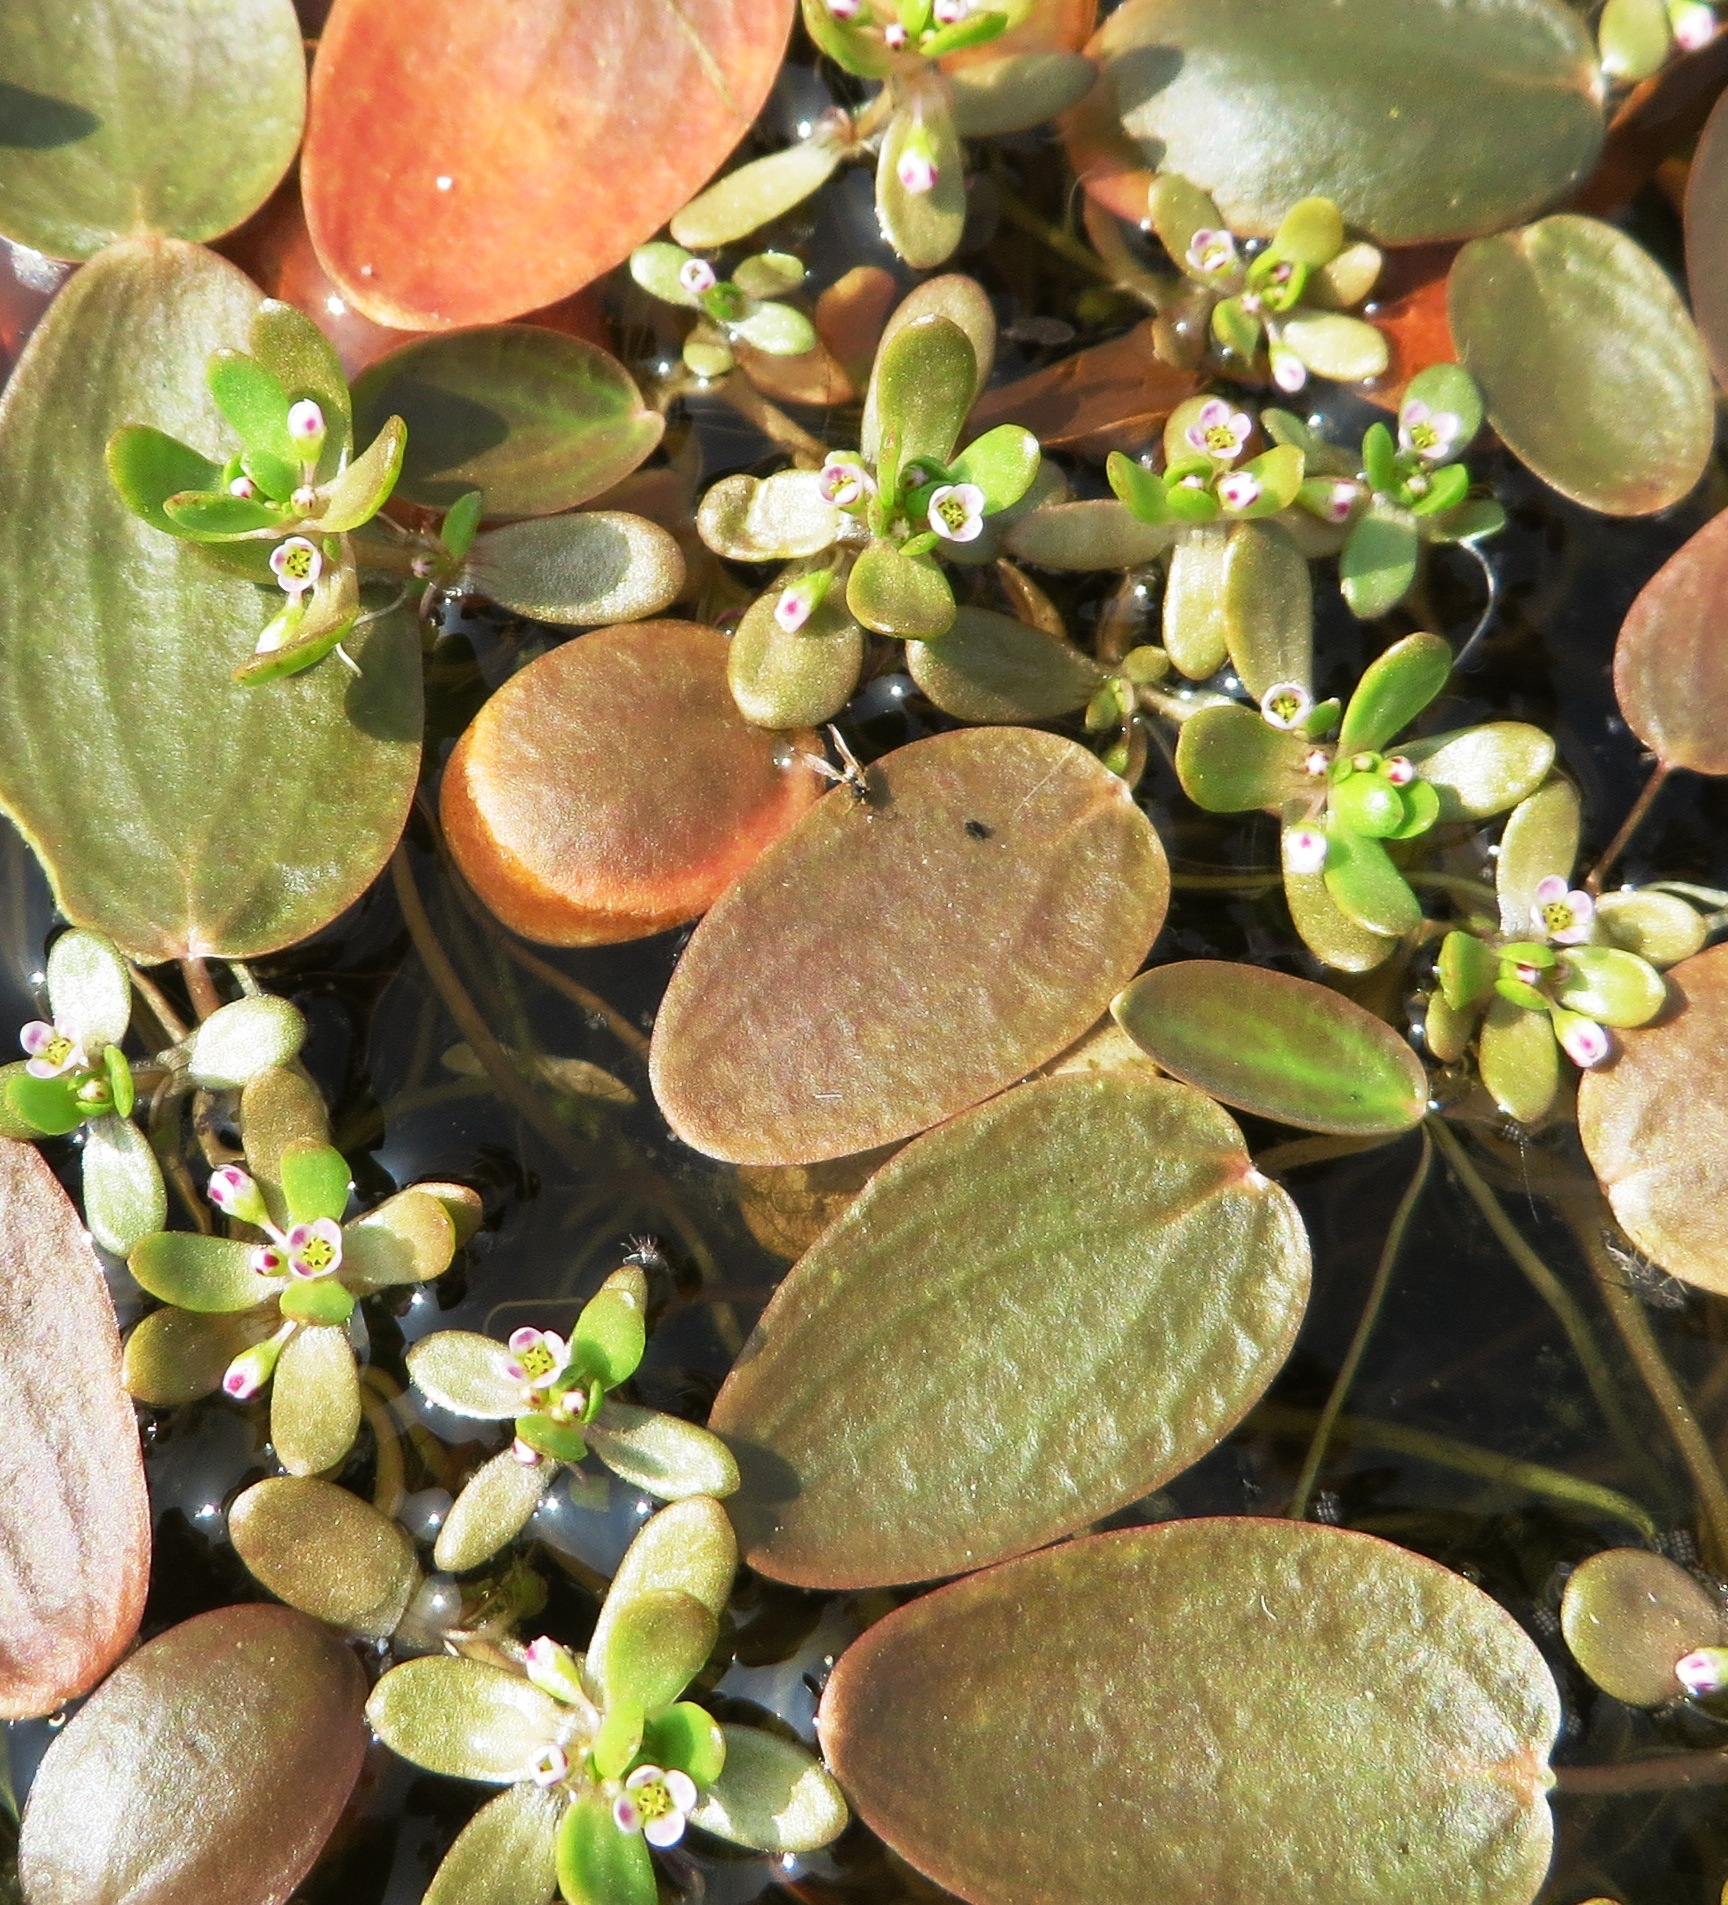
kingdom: Plantae
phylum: Tracheophyta
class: Magnoliopsida
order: Saxifragales
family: Crassulaceae
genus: Crassula
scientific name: Crassula natans
